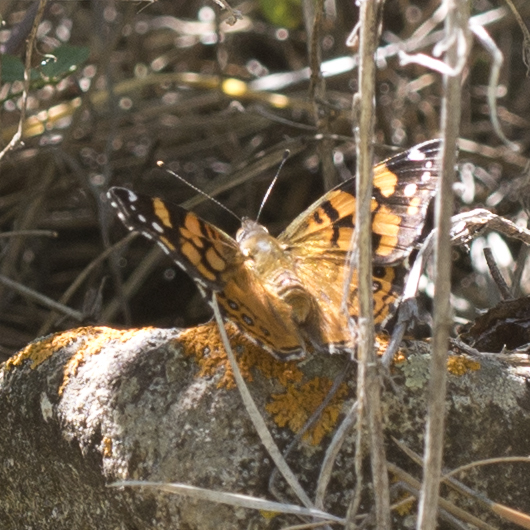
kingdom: Animalia
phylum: Arthropoda
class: Insecta
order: Lepidoptera
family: Nymphalidae
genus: Vanessa
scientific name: Vanessa annabella
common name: West coast lady
